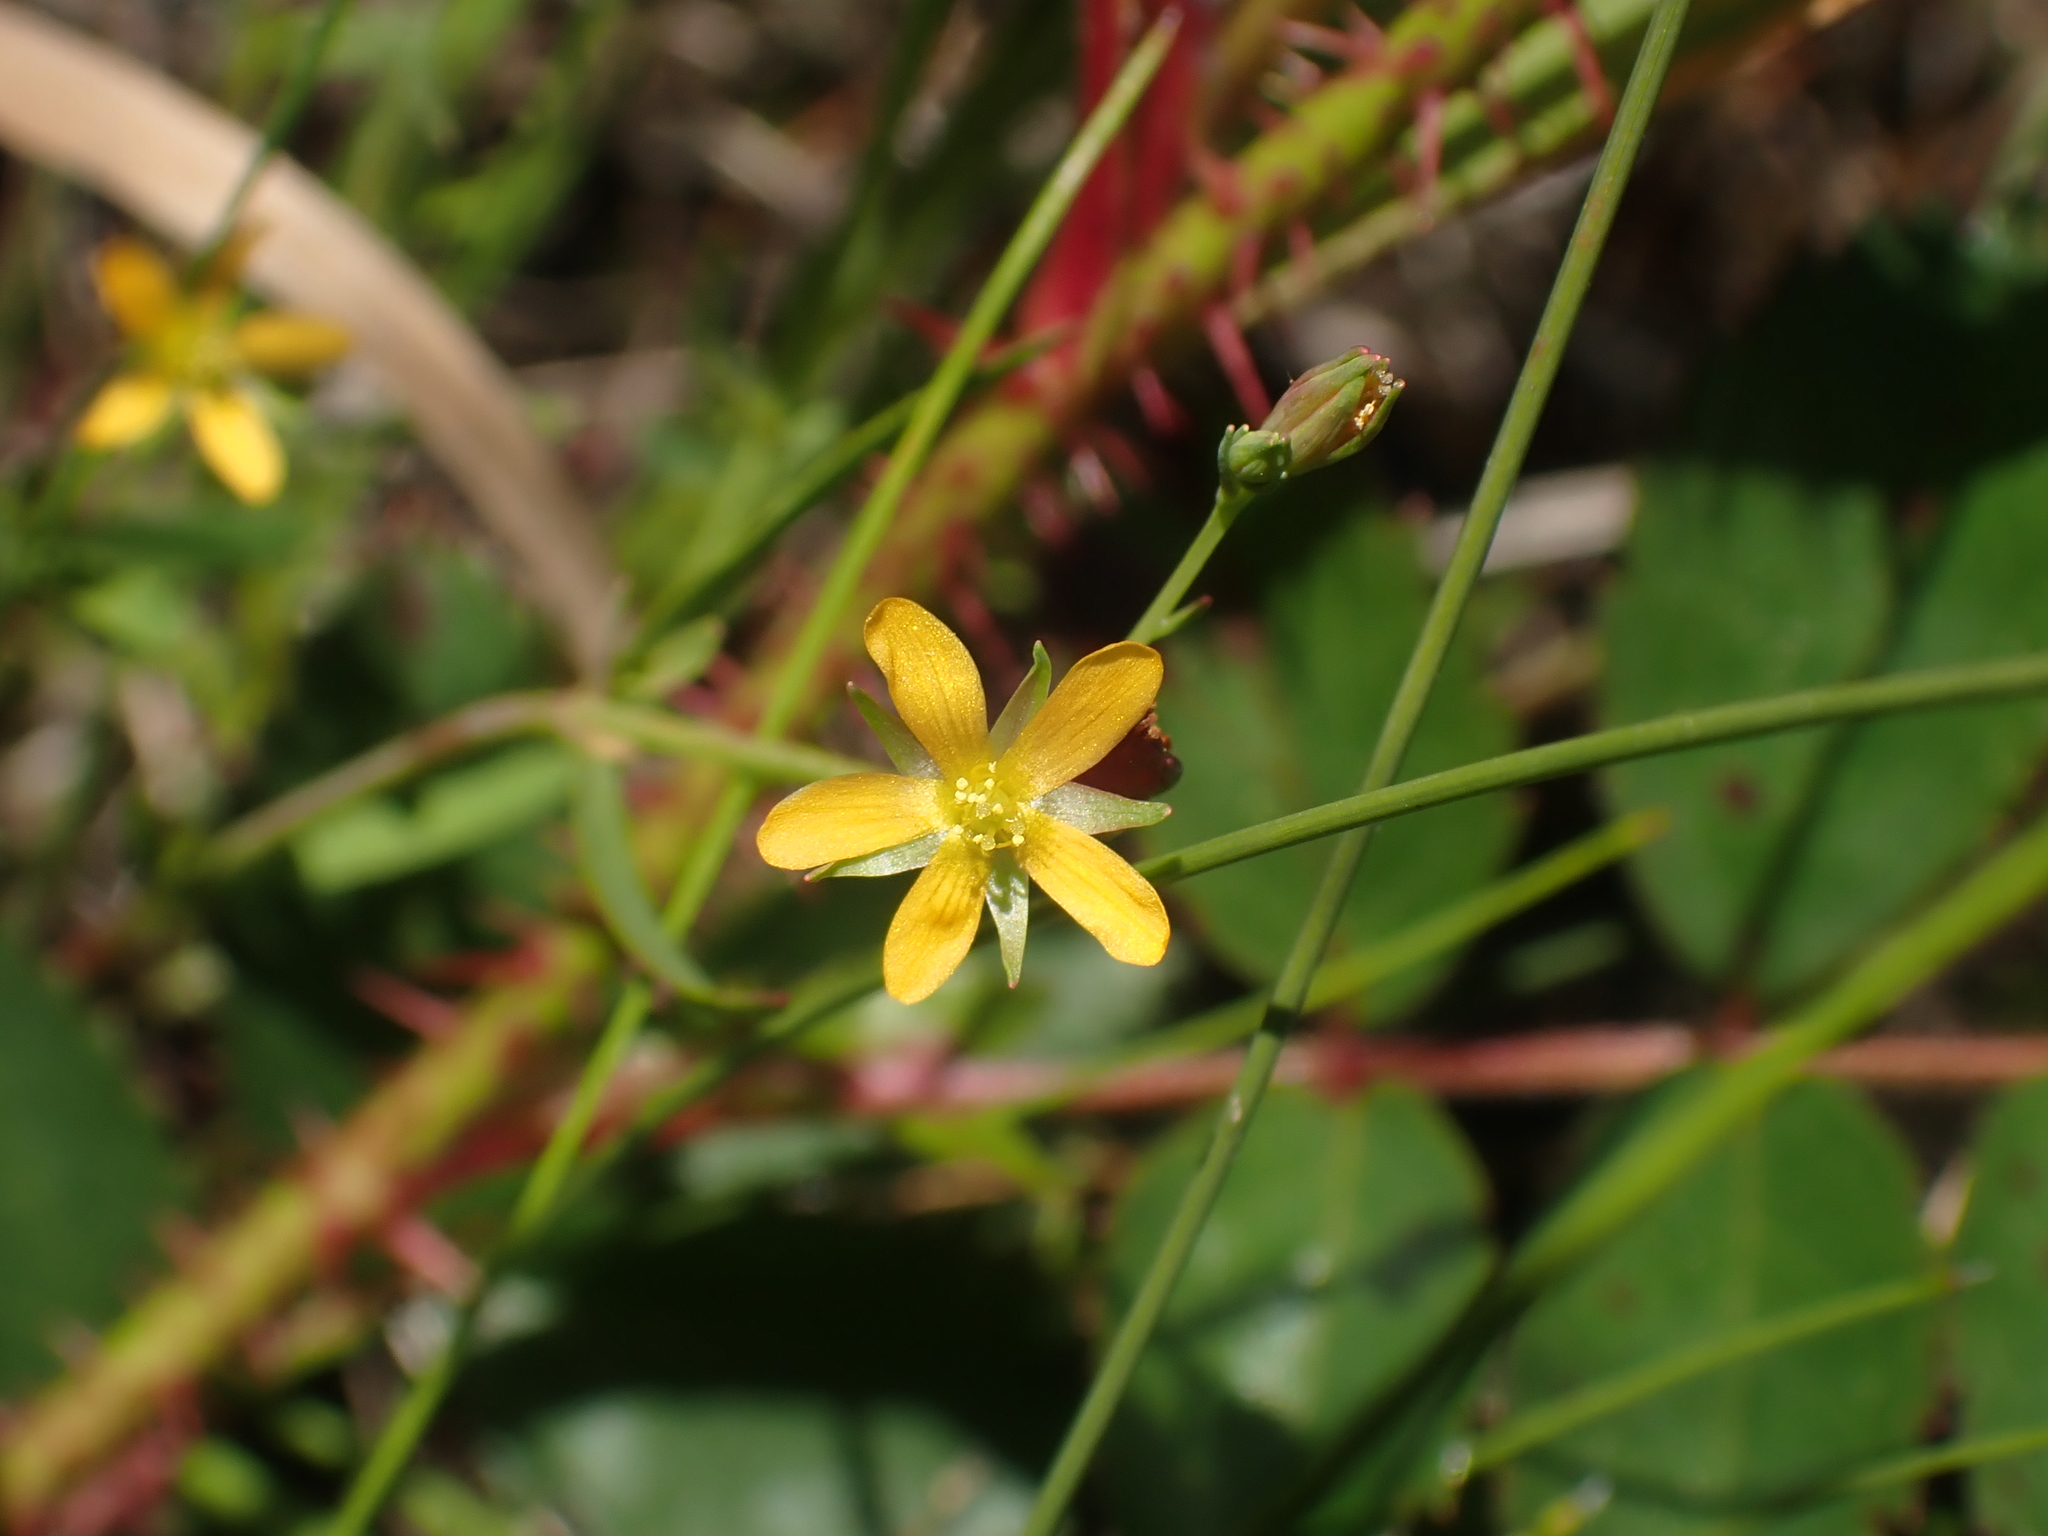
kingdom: Plantae
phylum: Tracheophyta
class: Magnoliopsida
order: Malpighiales
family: Hypericaceae
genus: Hypericum
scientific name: Hypericum canadense
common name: Irish st. john's-wort
